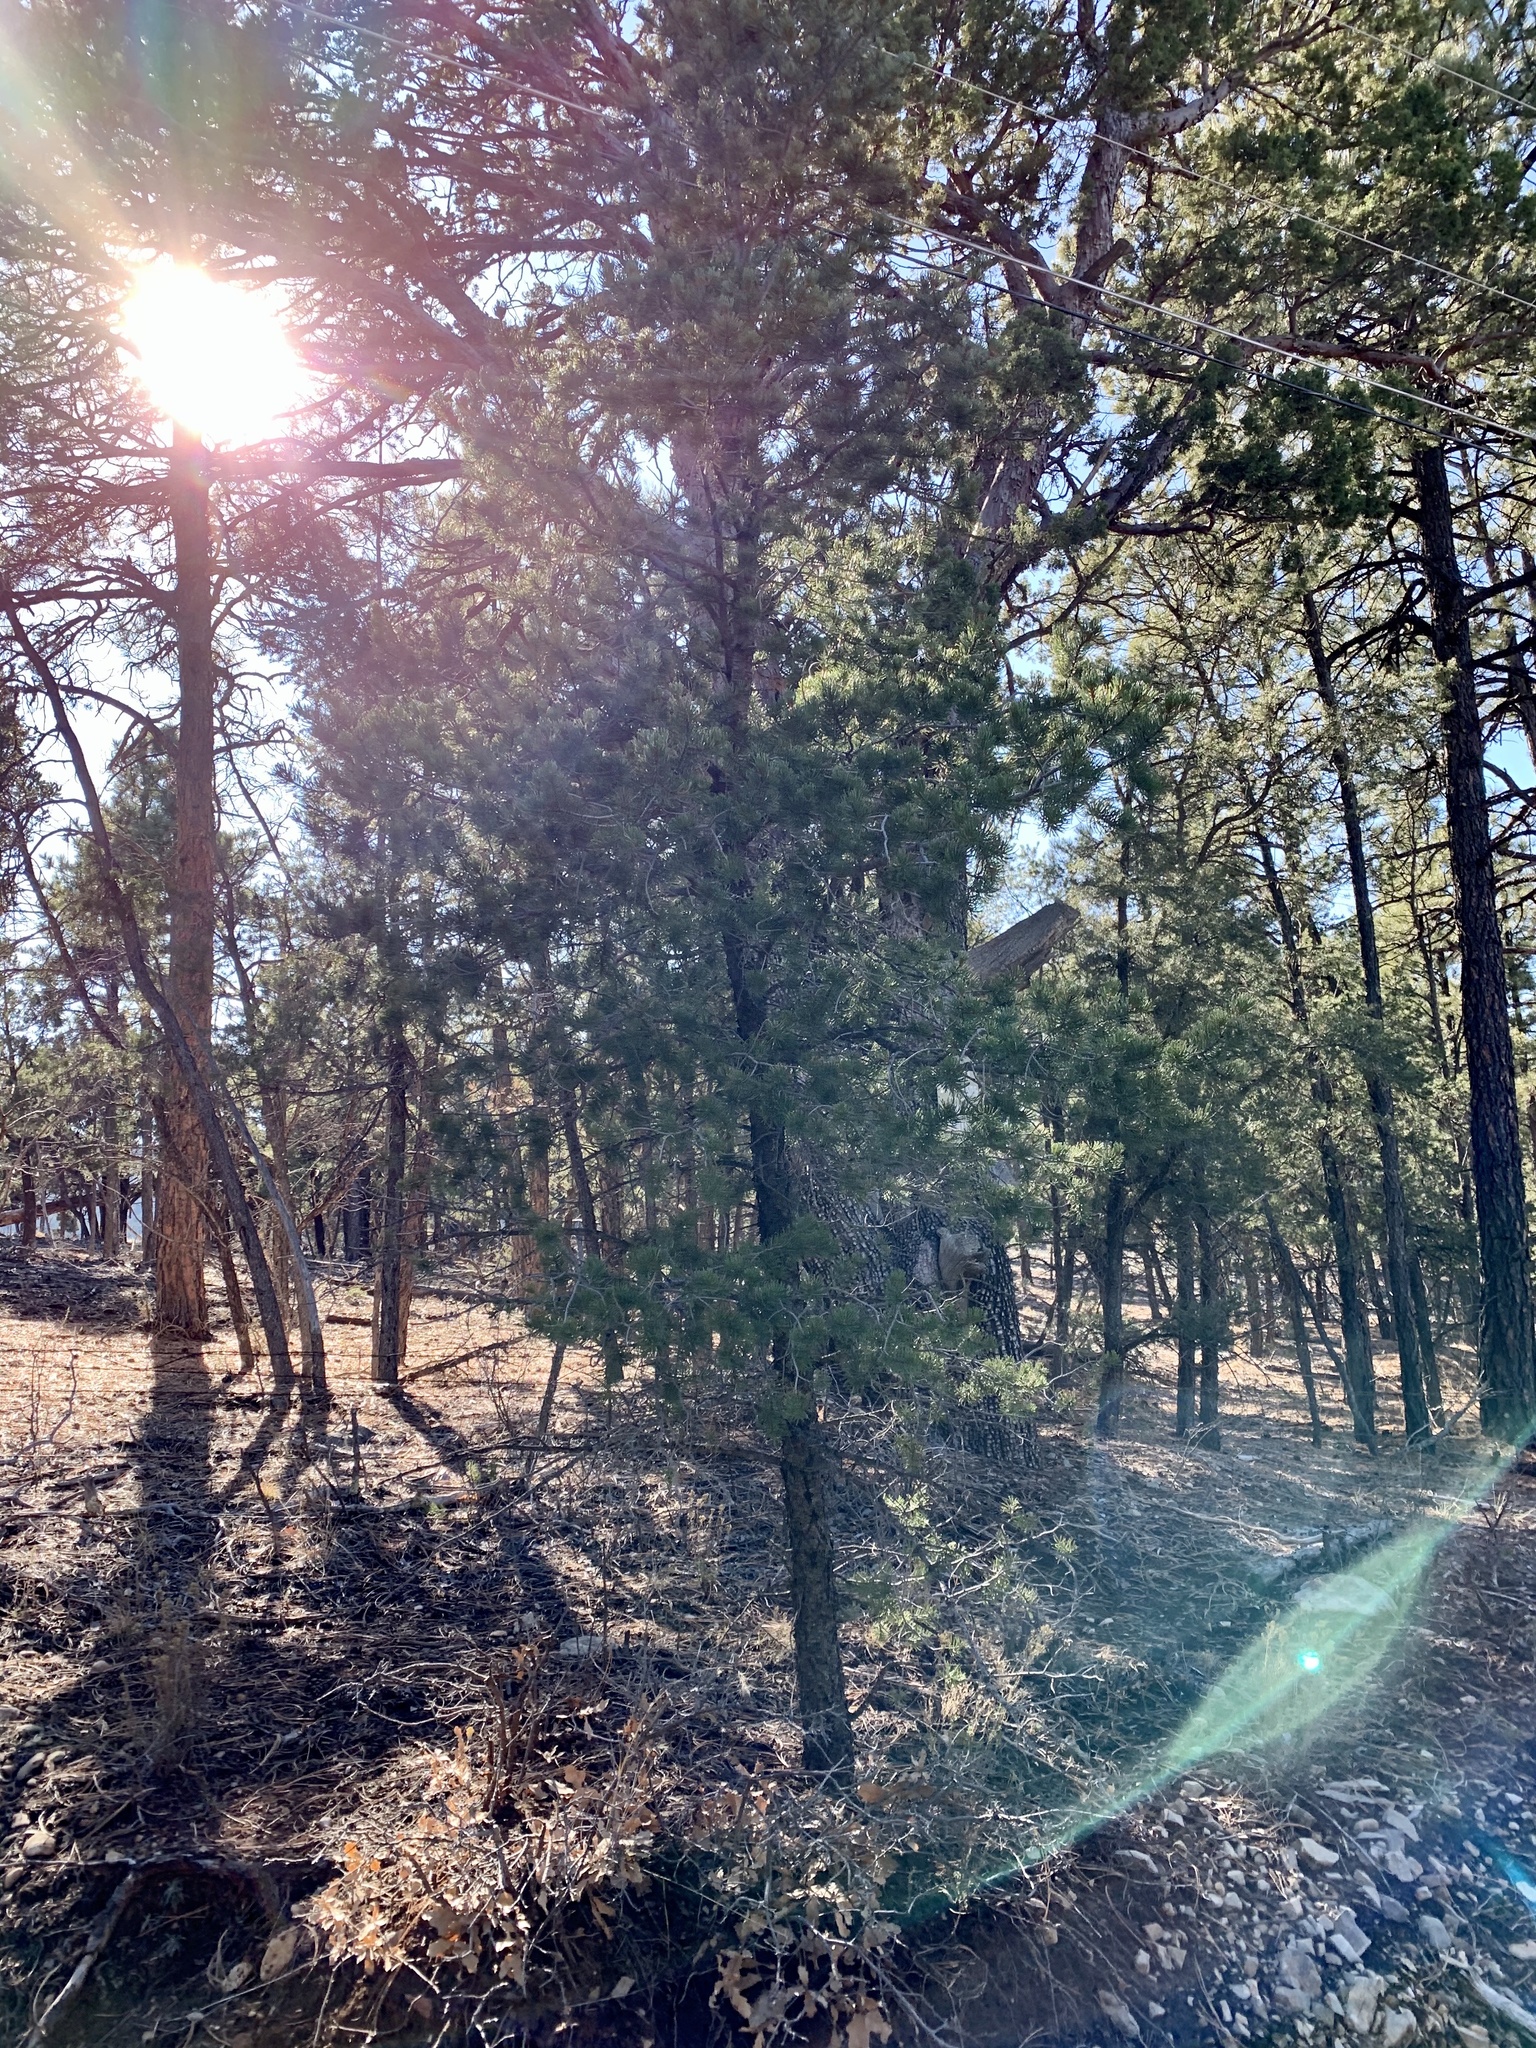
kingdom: Plantae
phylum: Tracheophyta
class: Pinopsida
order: Pinales
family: Pinaceae
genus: Pinus
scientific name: Pinus edulis
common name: Colorado pinyon
